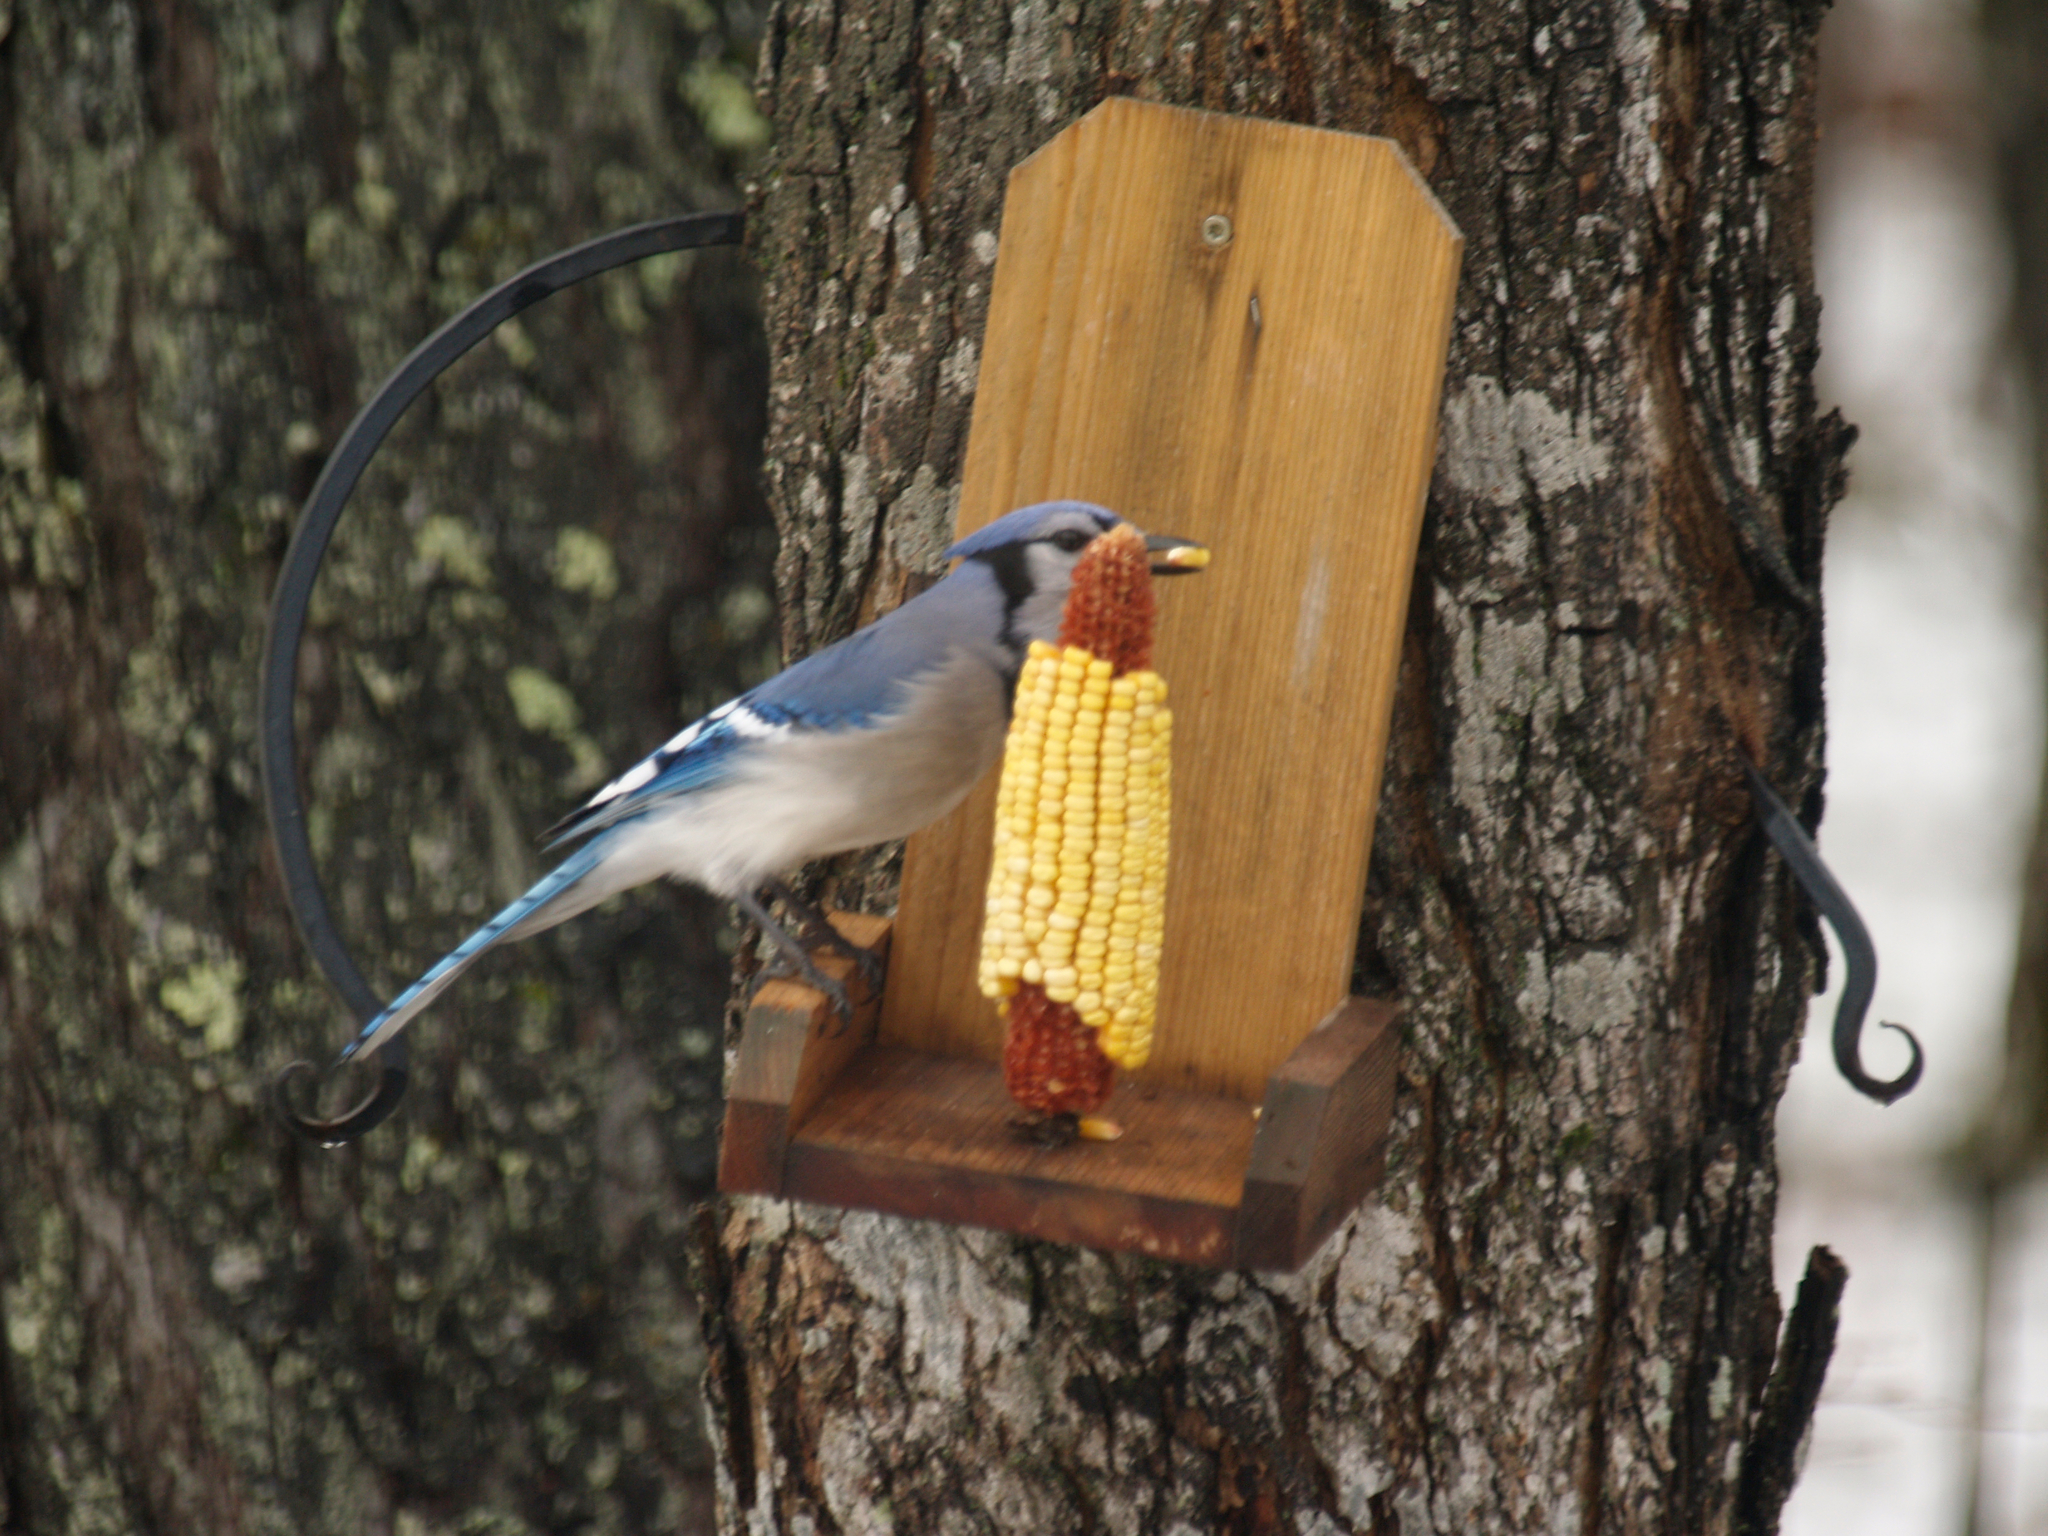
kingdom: Animalia
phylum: Chordata
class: Aves
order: Passeriformes
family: Corvidae
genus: Cyanocitta
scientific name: Cyanocitta cristata
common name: Blue jay
